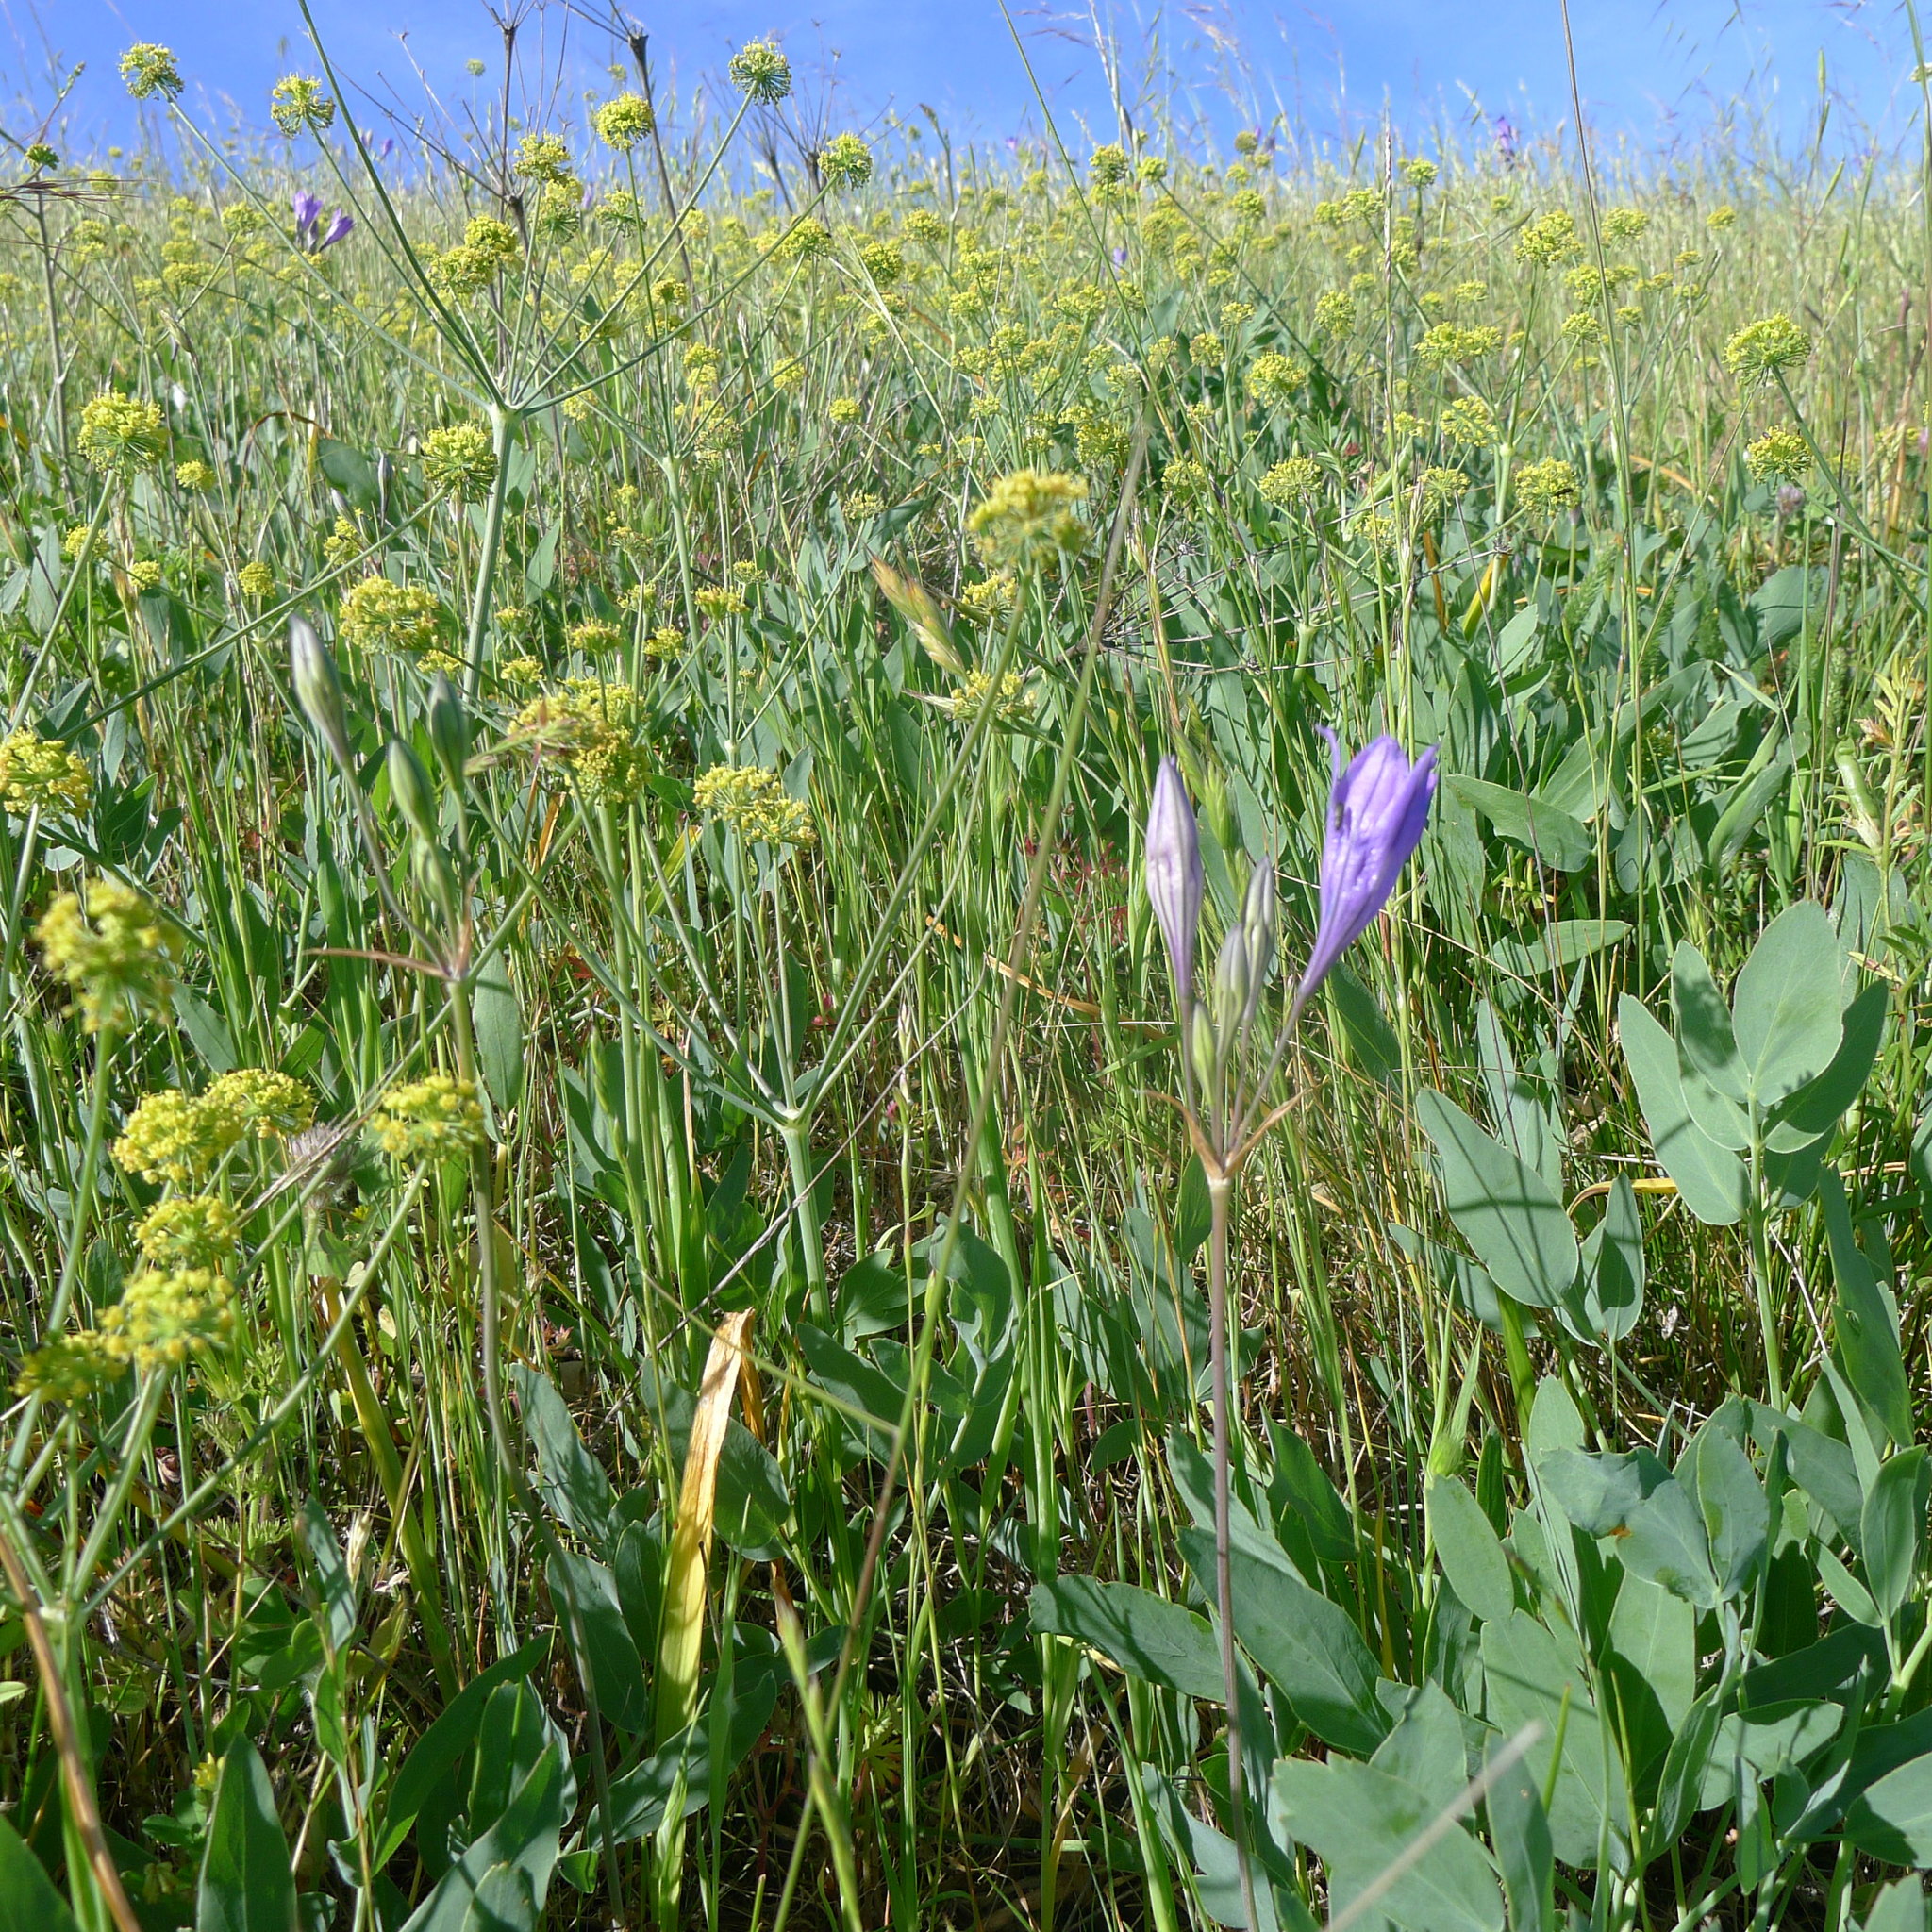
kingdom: Plantae
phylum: Tracheophyta
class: Magnoliopsida
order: Apiales
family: Apiaceae
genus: Lomatium
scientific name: Lomatium californicum
